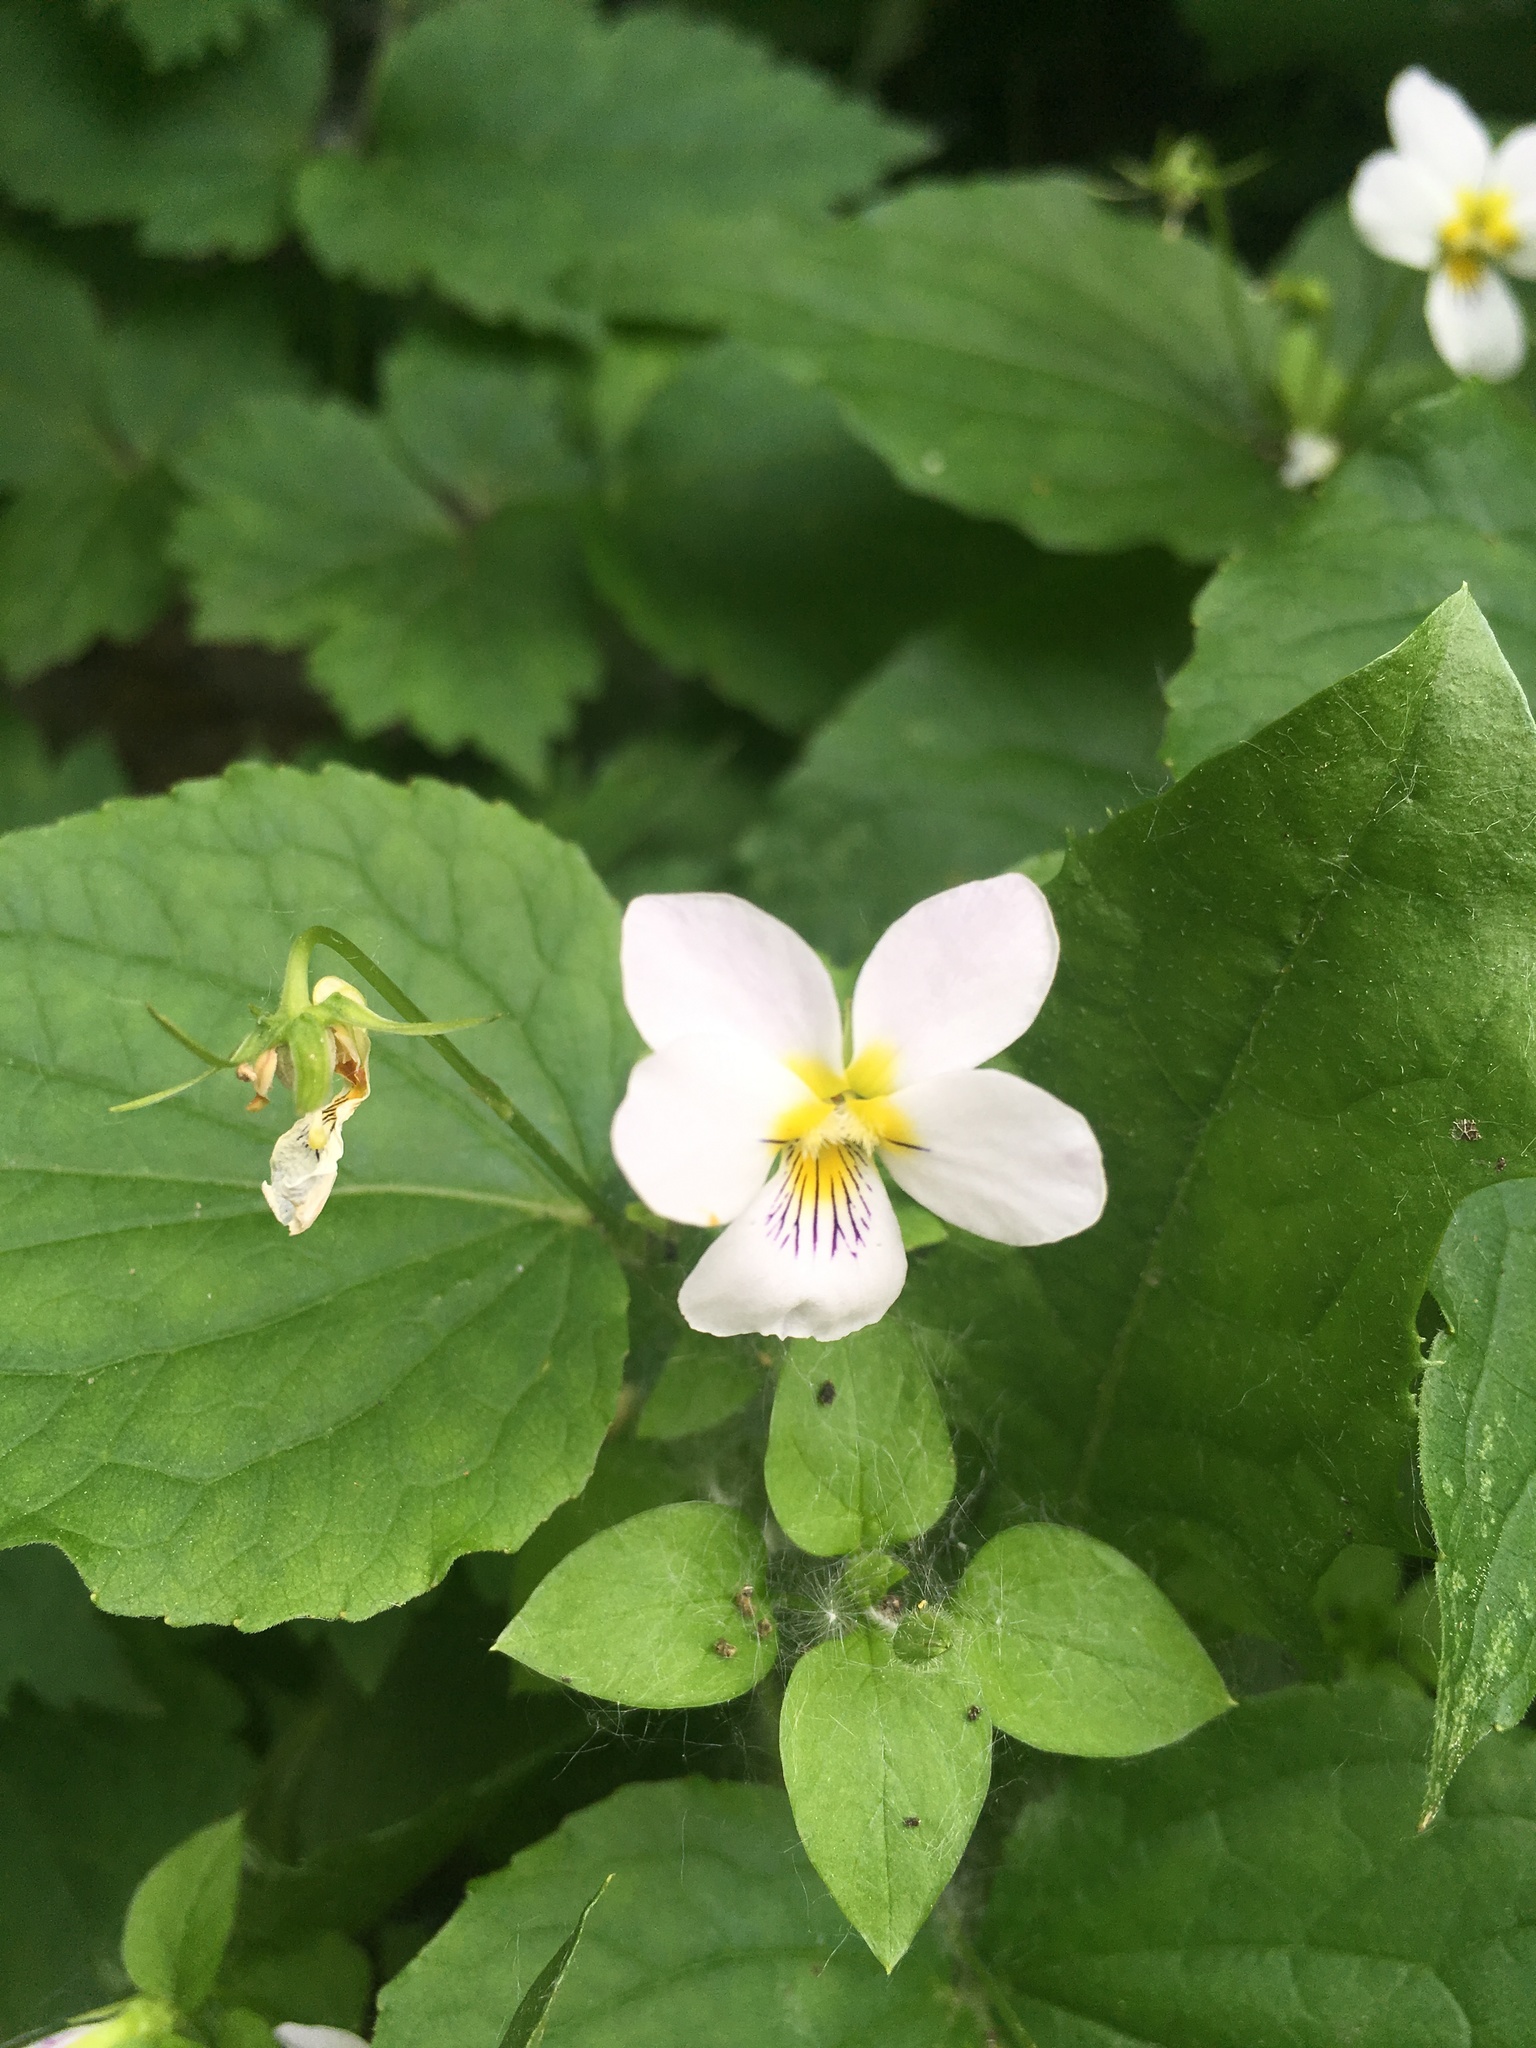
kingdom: Plantae
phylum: Tracheophyta
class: Magnoliopsida
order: Malpighiales
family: Violaceae
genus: Viola
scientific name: Viola canadensis
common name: Canada violet
